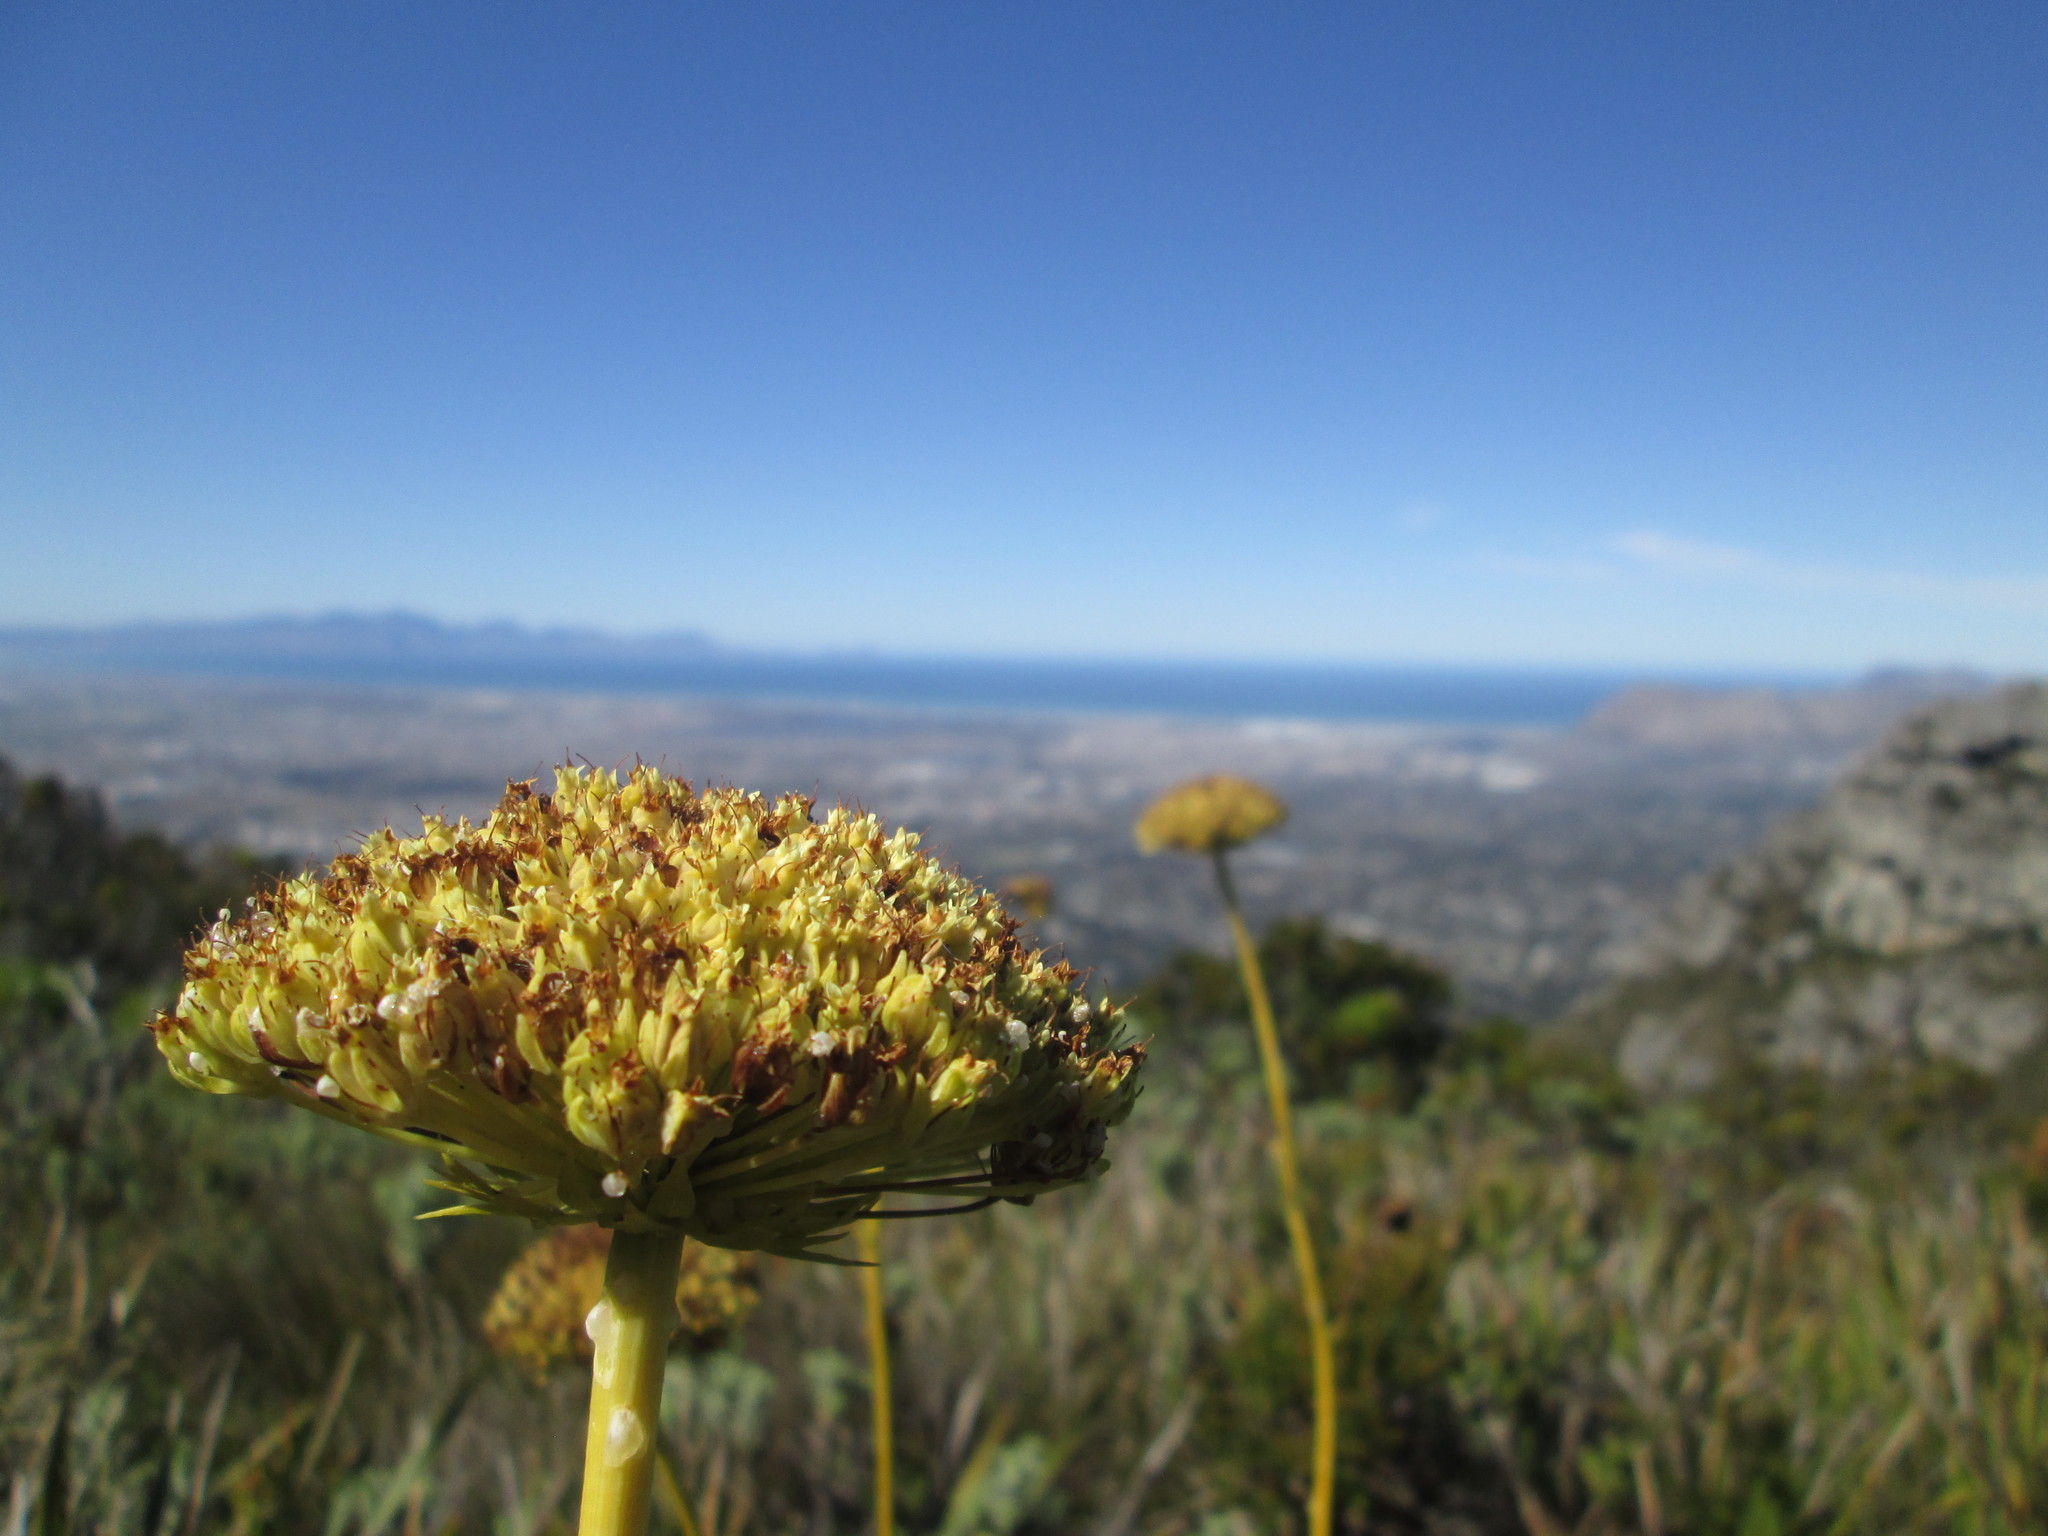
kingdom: Plantae
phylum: Tracheophyta
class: Magnoliopsida
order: Apiales
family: Apiaceae
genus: Hermas
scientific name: Hermas villosa
